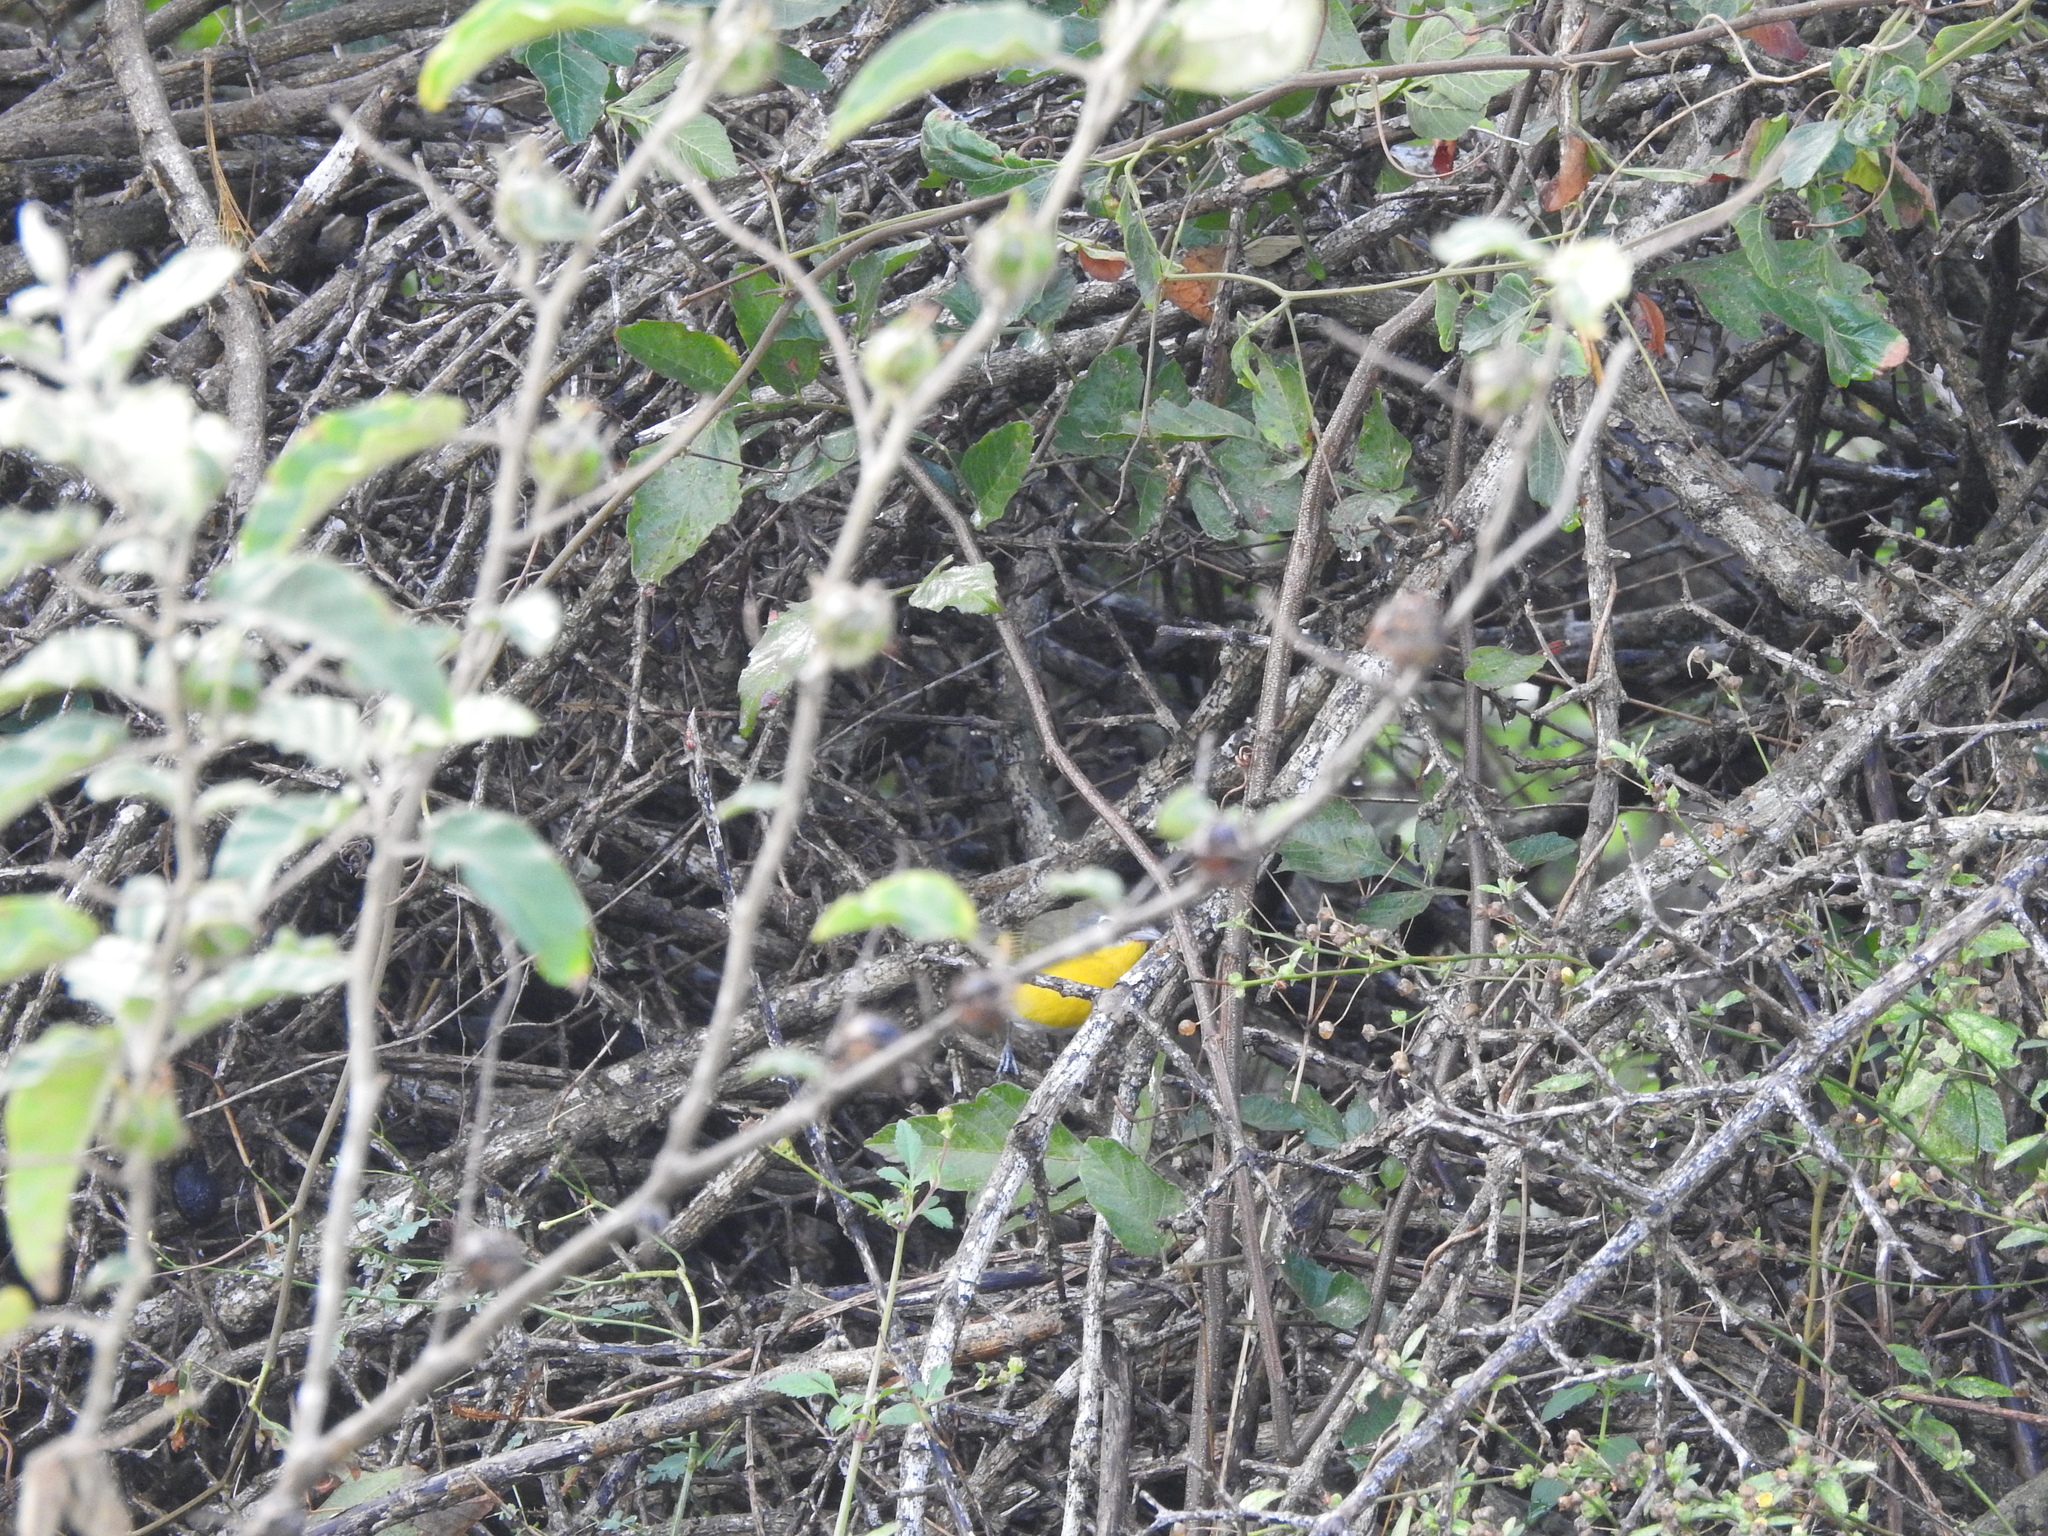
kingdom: Animalia
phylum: Chordata
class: Aves
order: Passeriformes
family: Parulidae
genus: Icteria
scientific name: Icteria virens
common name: Yellow-breasted chat
